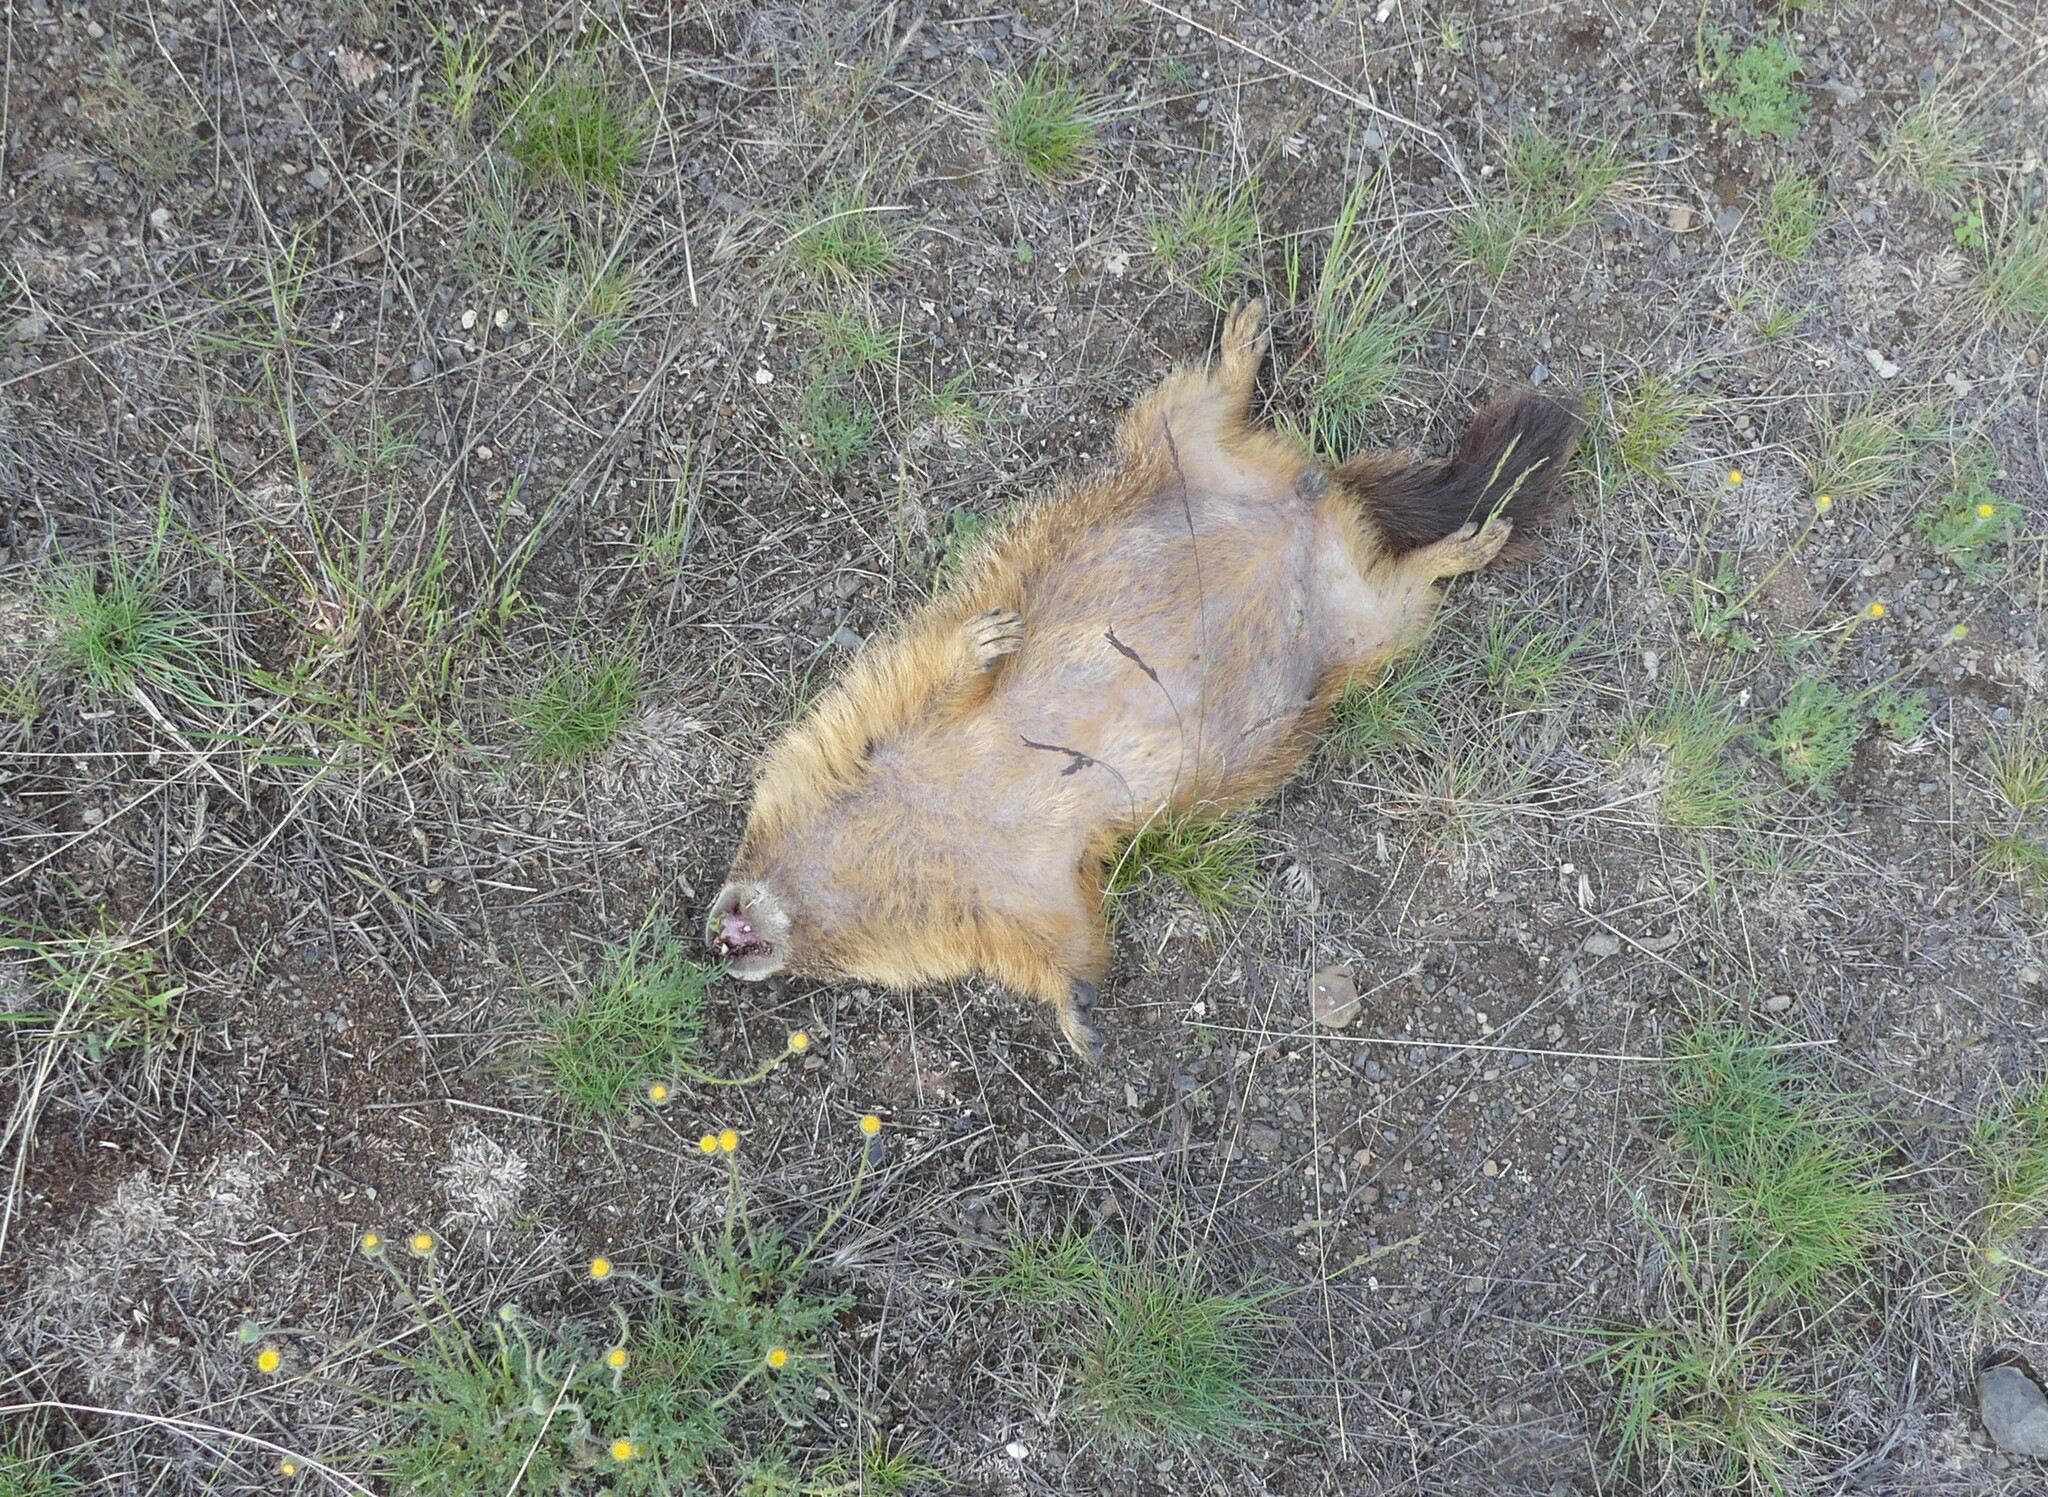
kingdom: Animalia
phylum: Chordata
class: Mammalia
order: Rodentia
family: Sciuridae
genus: Marmota
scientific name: Marmota flaviventris
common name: Yellow-bellied marmot
